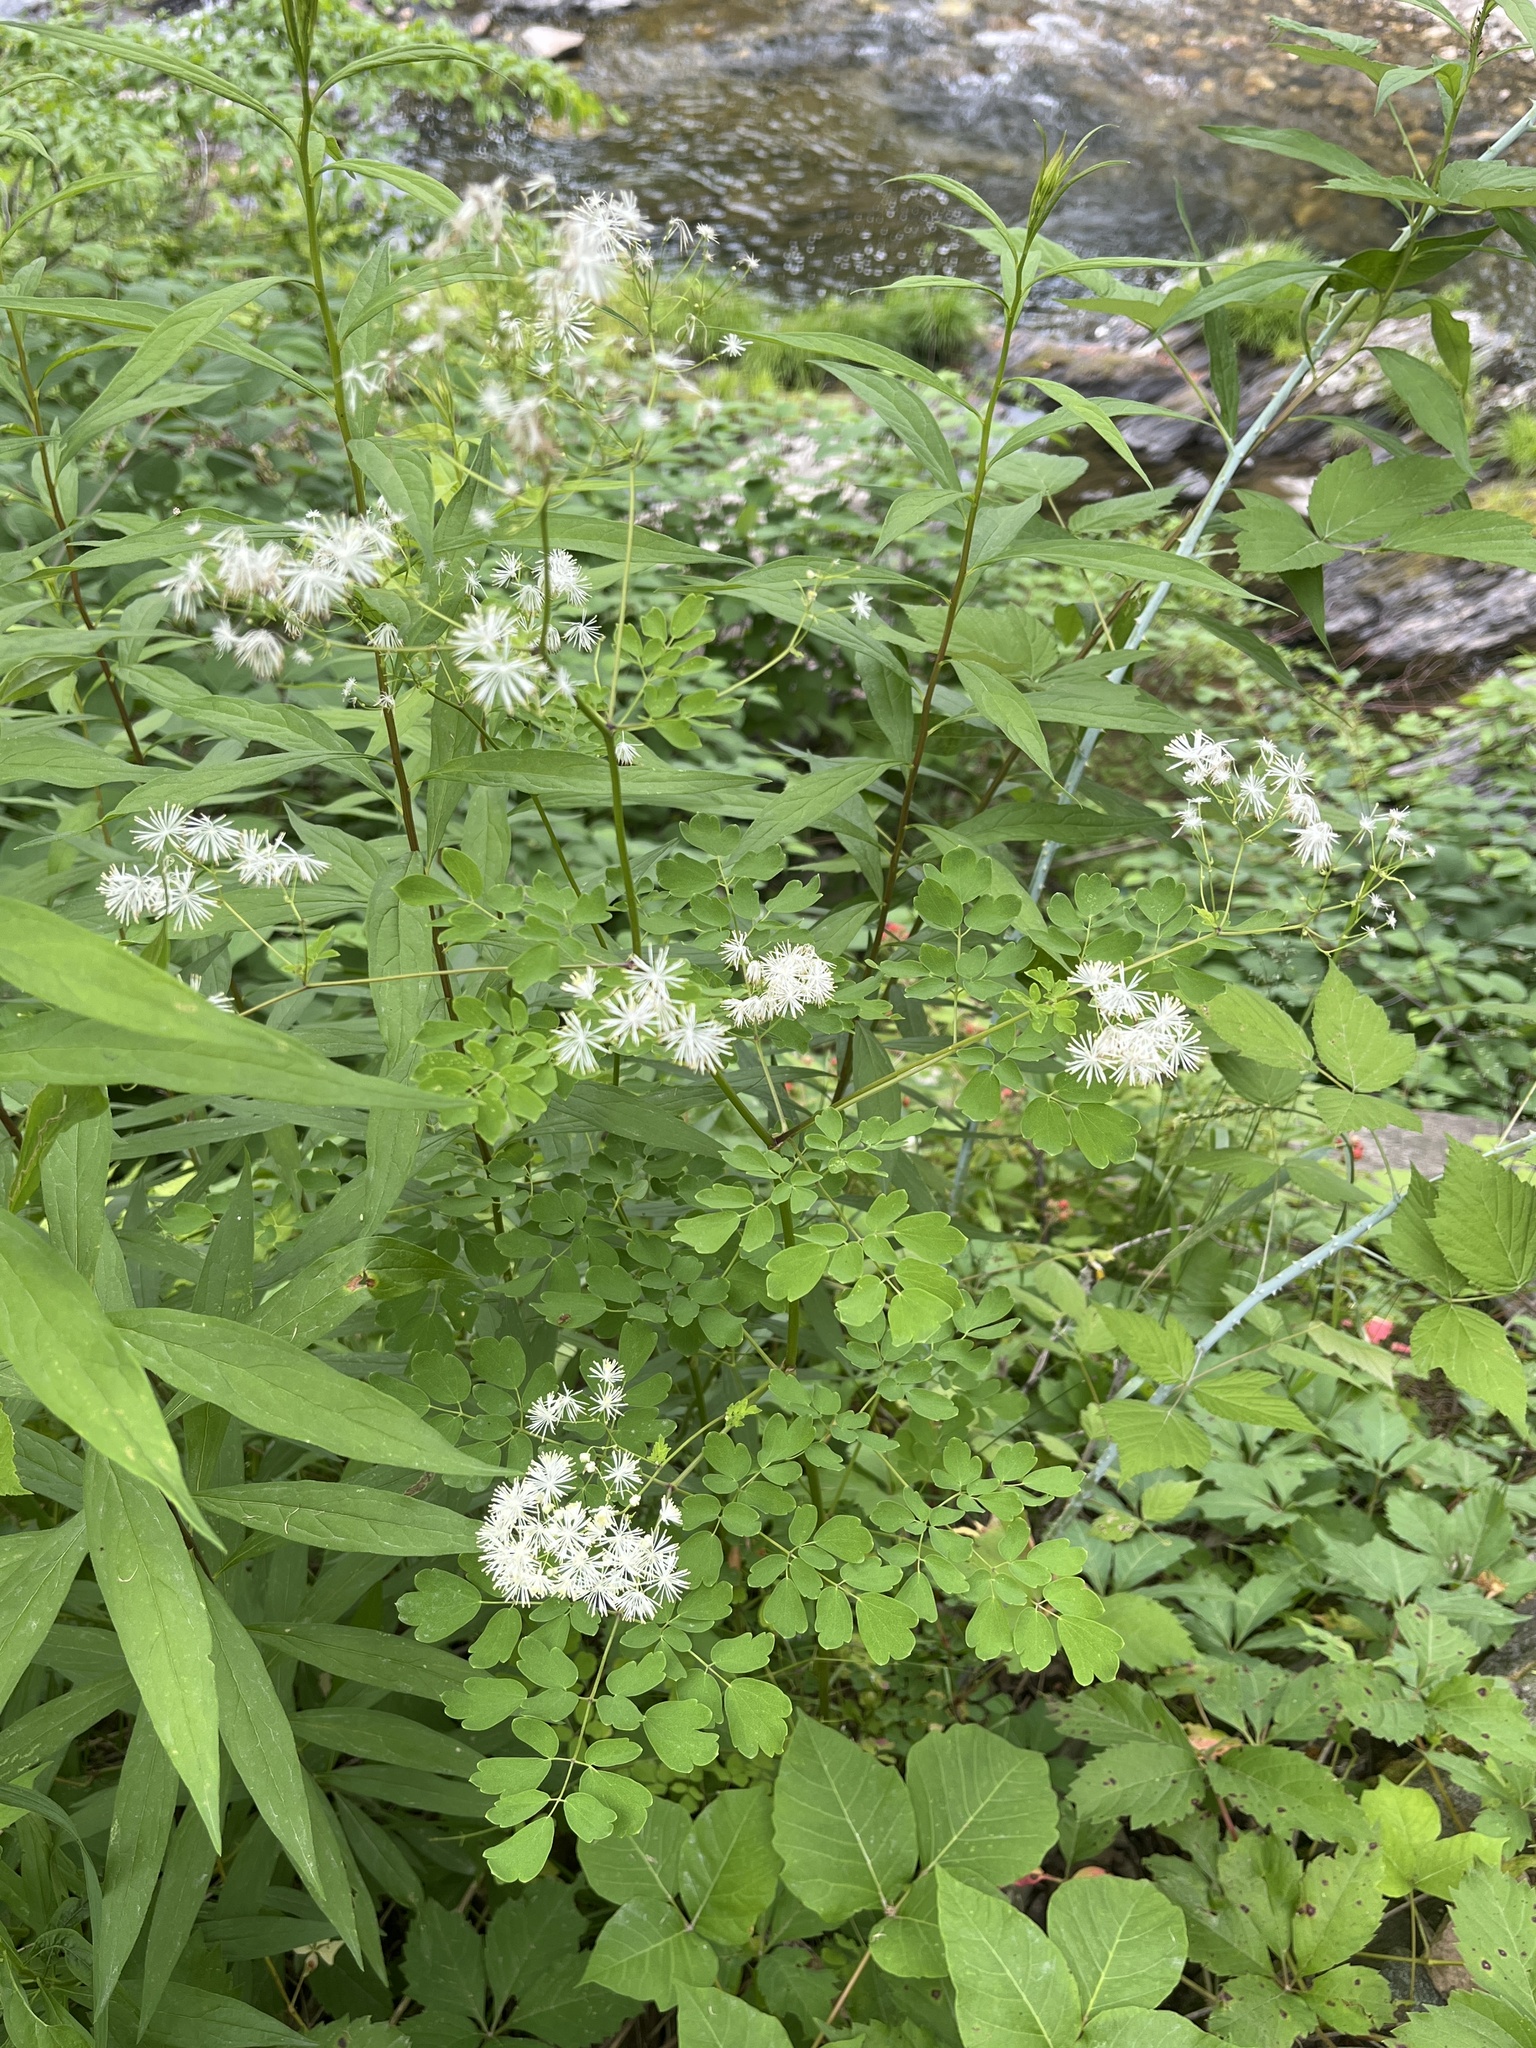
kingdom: Plantae
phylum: Tracheophyta
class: Magnoliopsida
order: Ranunculales
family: Ranunculaceae
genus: Thalictrum
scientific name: Thalictrum pubescens
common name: King-of-the-meadow
